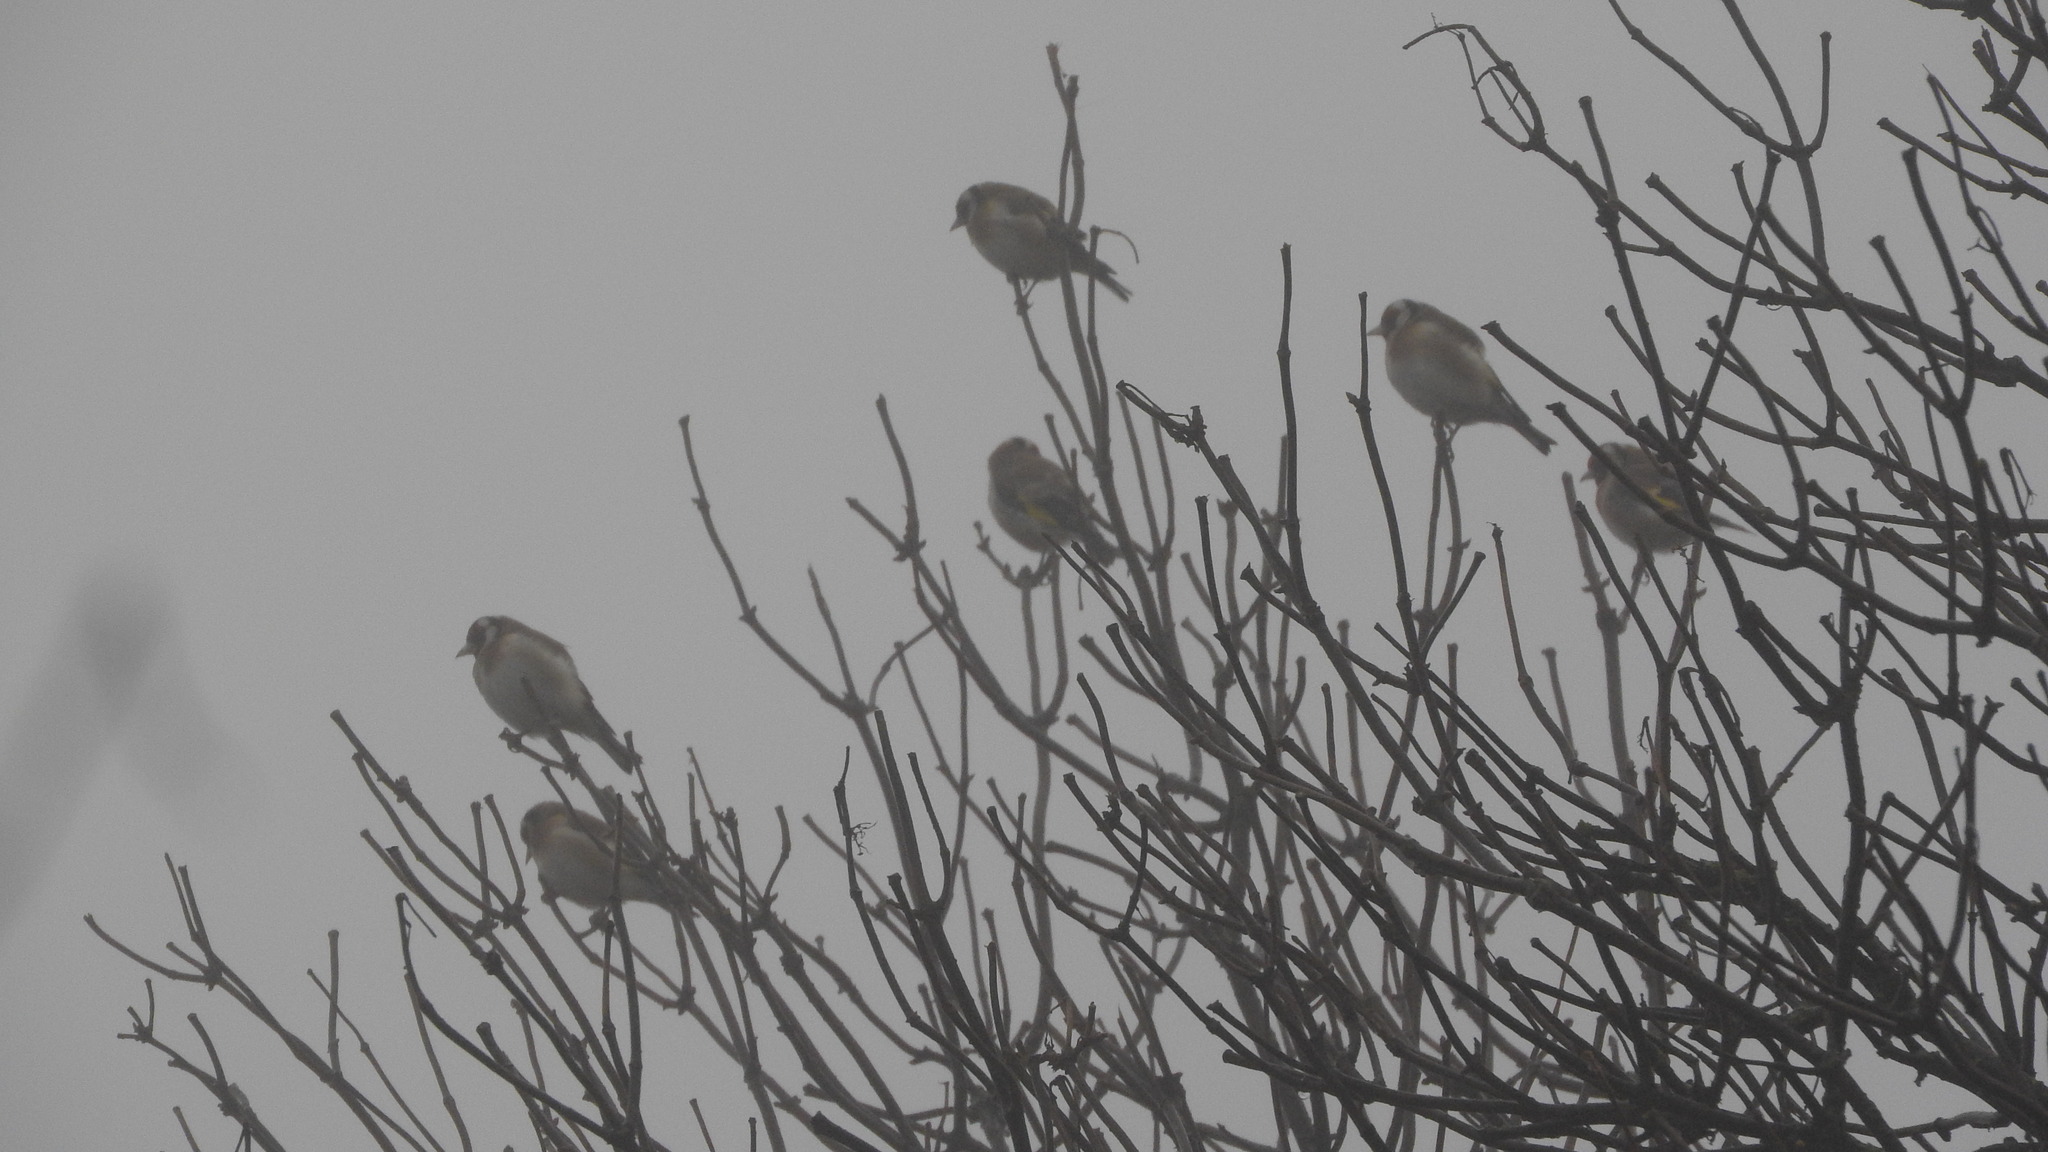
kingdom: Animalia
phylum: Chordata
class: Aves
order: Passeriformes
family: Fringillidae
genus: Carduelis
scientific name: Carduelis carduelis
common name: European goldfinch
